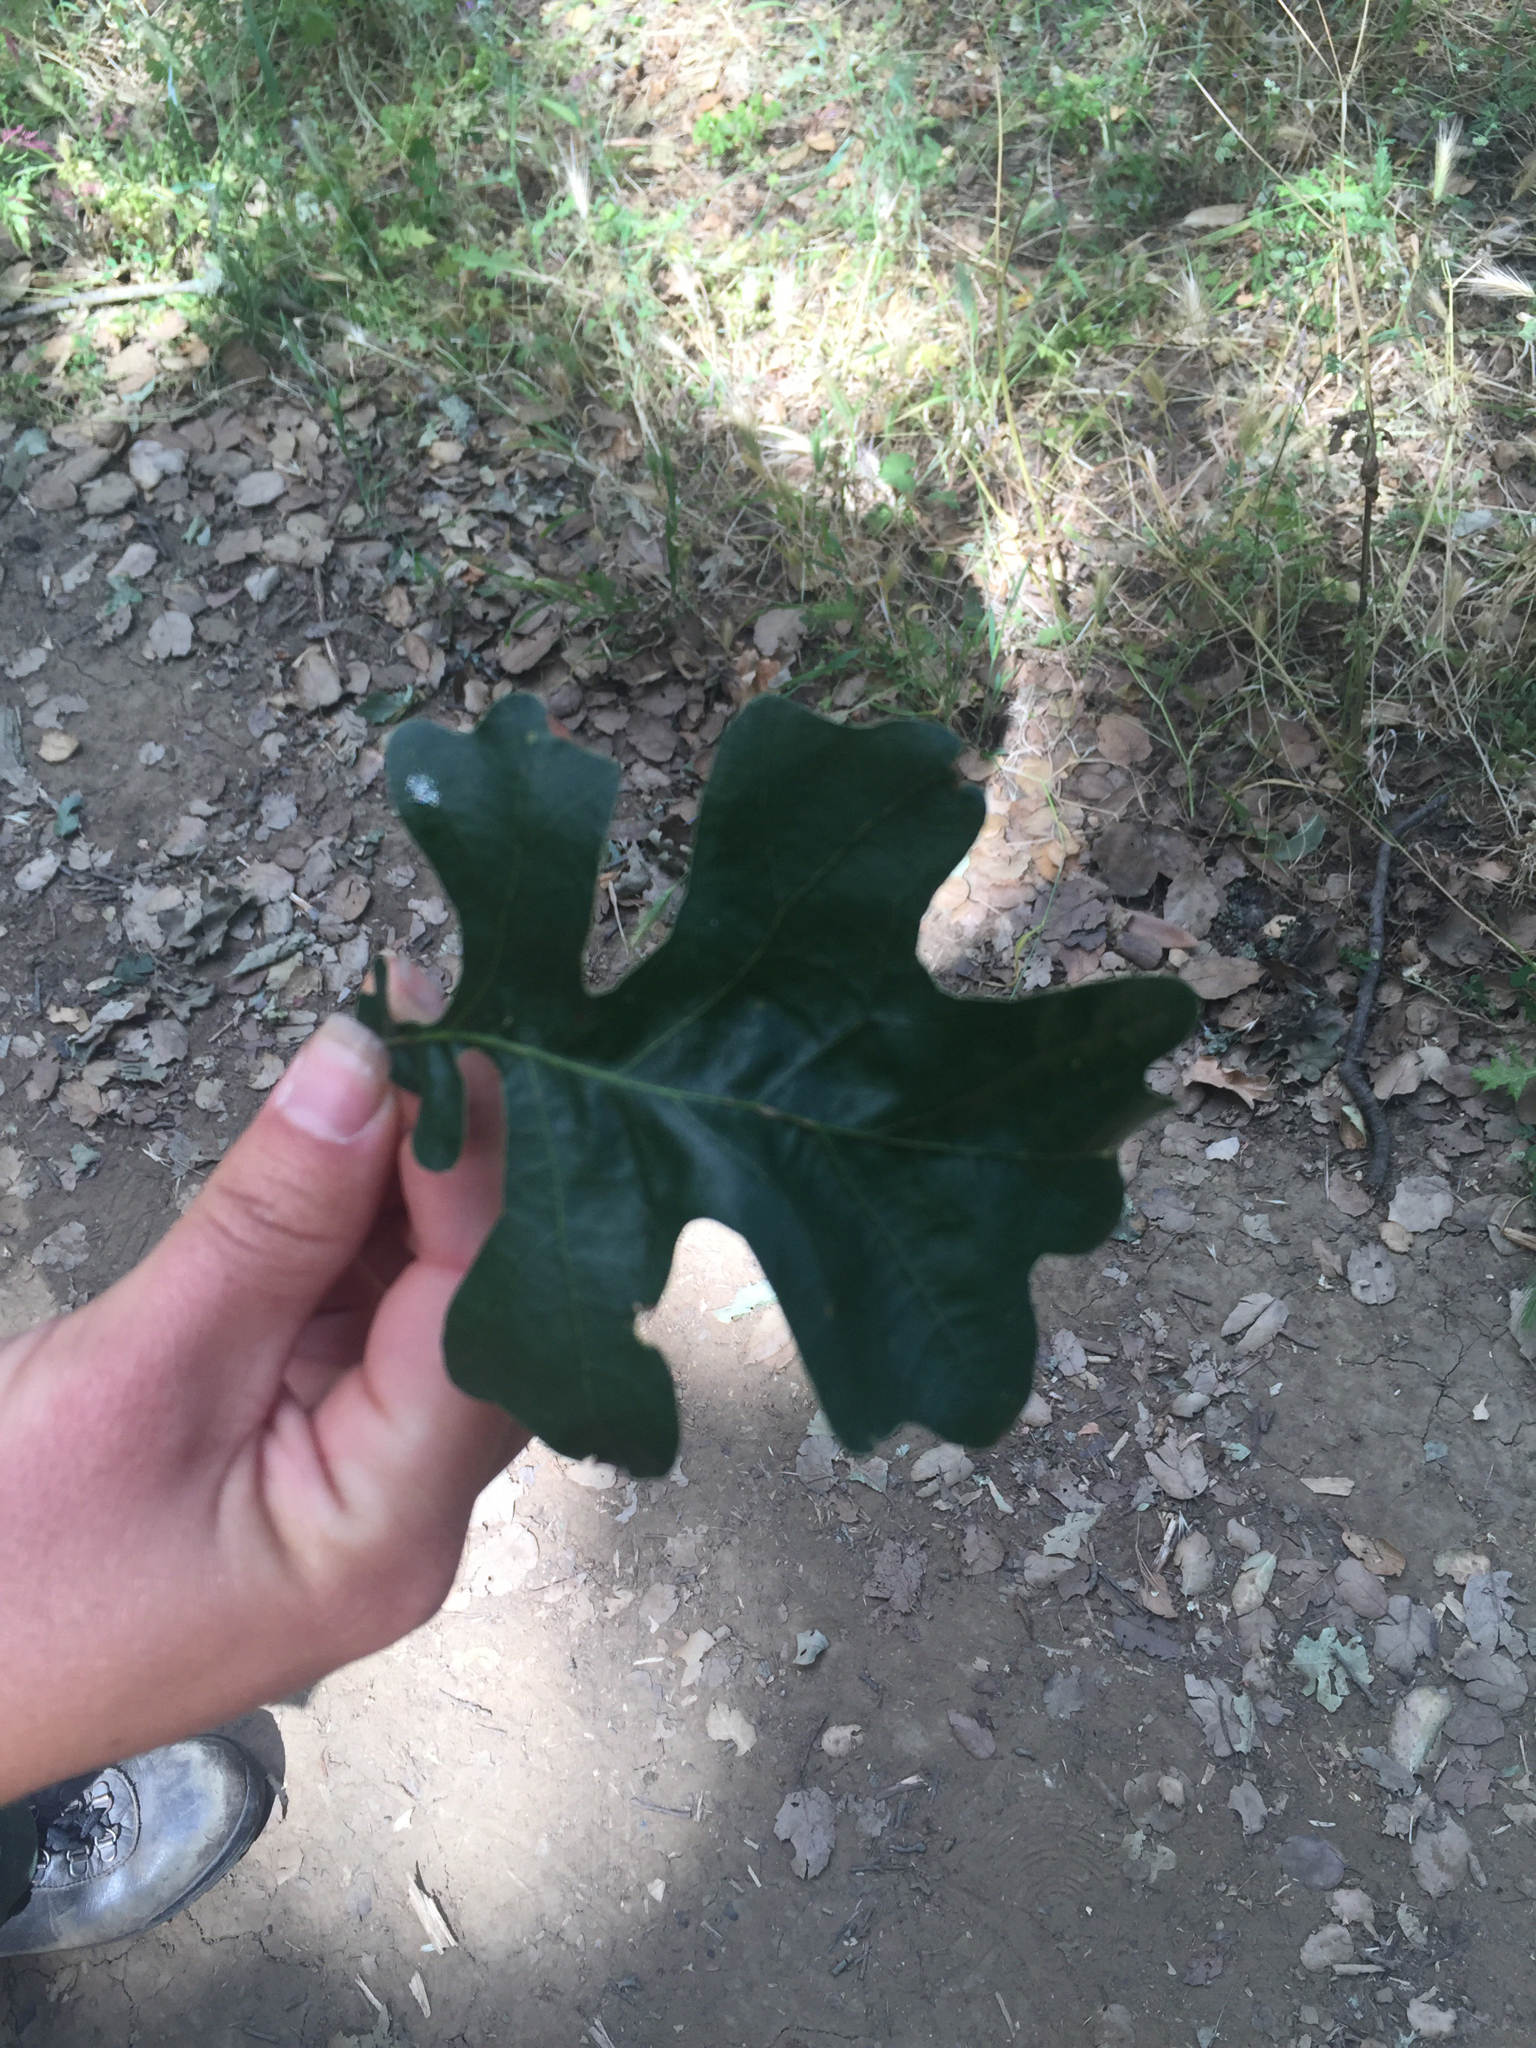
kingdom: Plantae
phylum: Tracheophyta
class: Magnoliopsida
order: Fagales
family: Fagaceae
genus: Quercus
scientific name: Quercus lobata
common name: Valley oak
